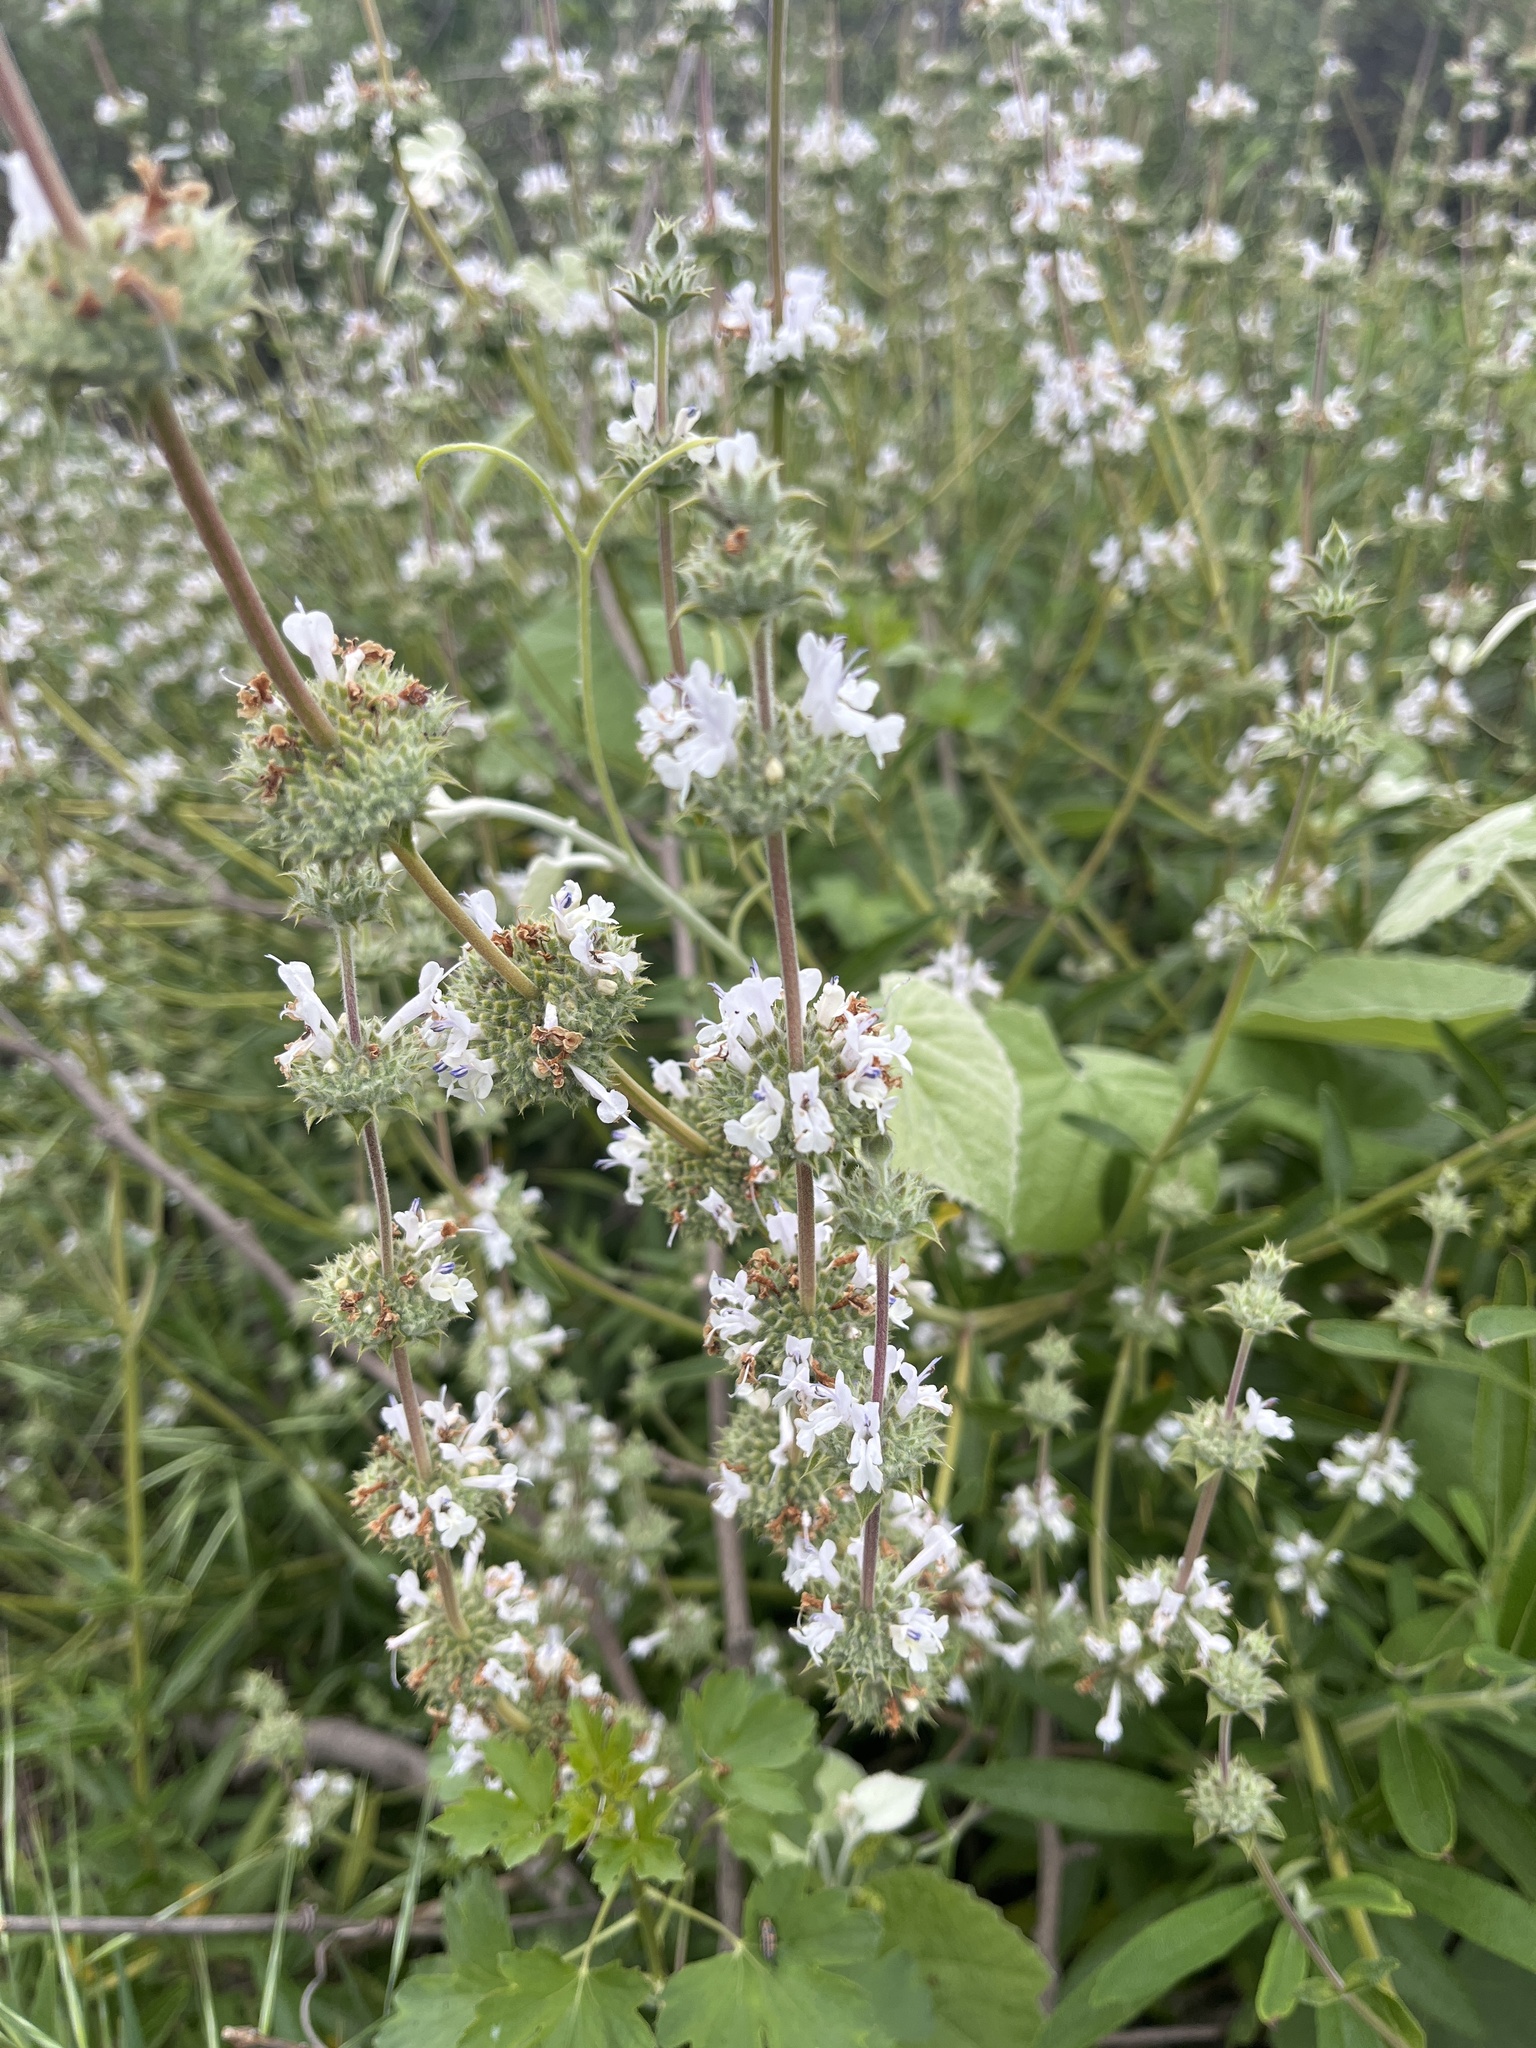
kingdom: Plantae
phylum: Tracheophyta
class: Magnoliopsida
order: Lamiales
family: Lamiaceae
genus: Salvia
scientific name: Salvia mellifera
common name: Black sage
